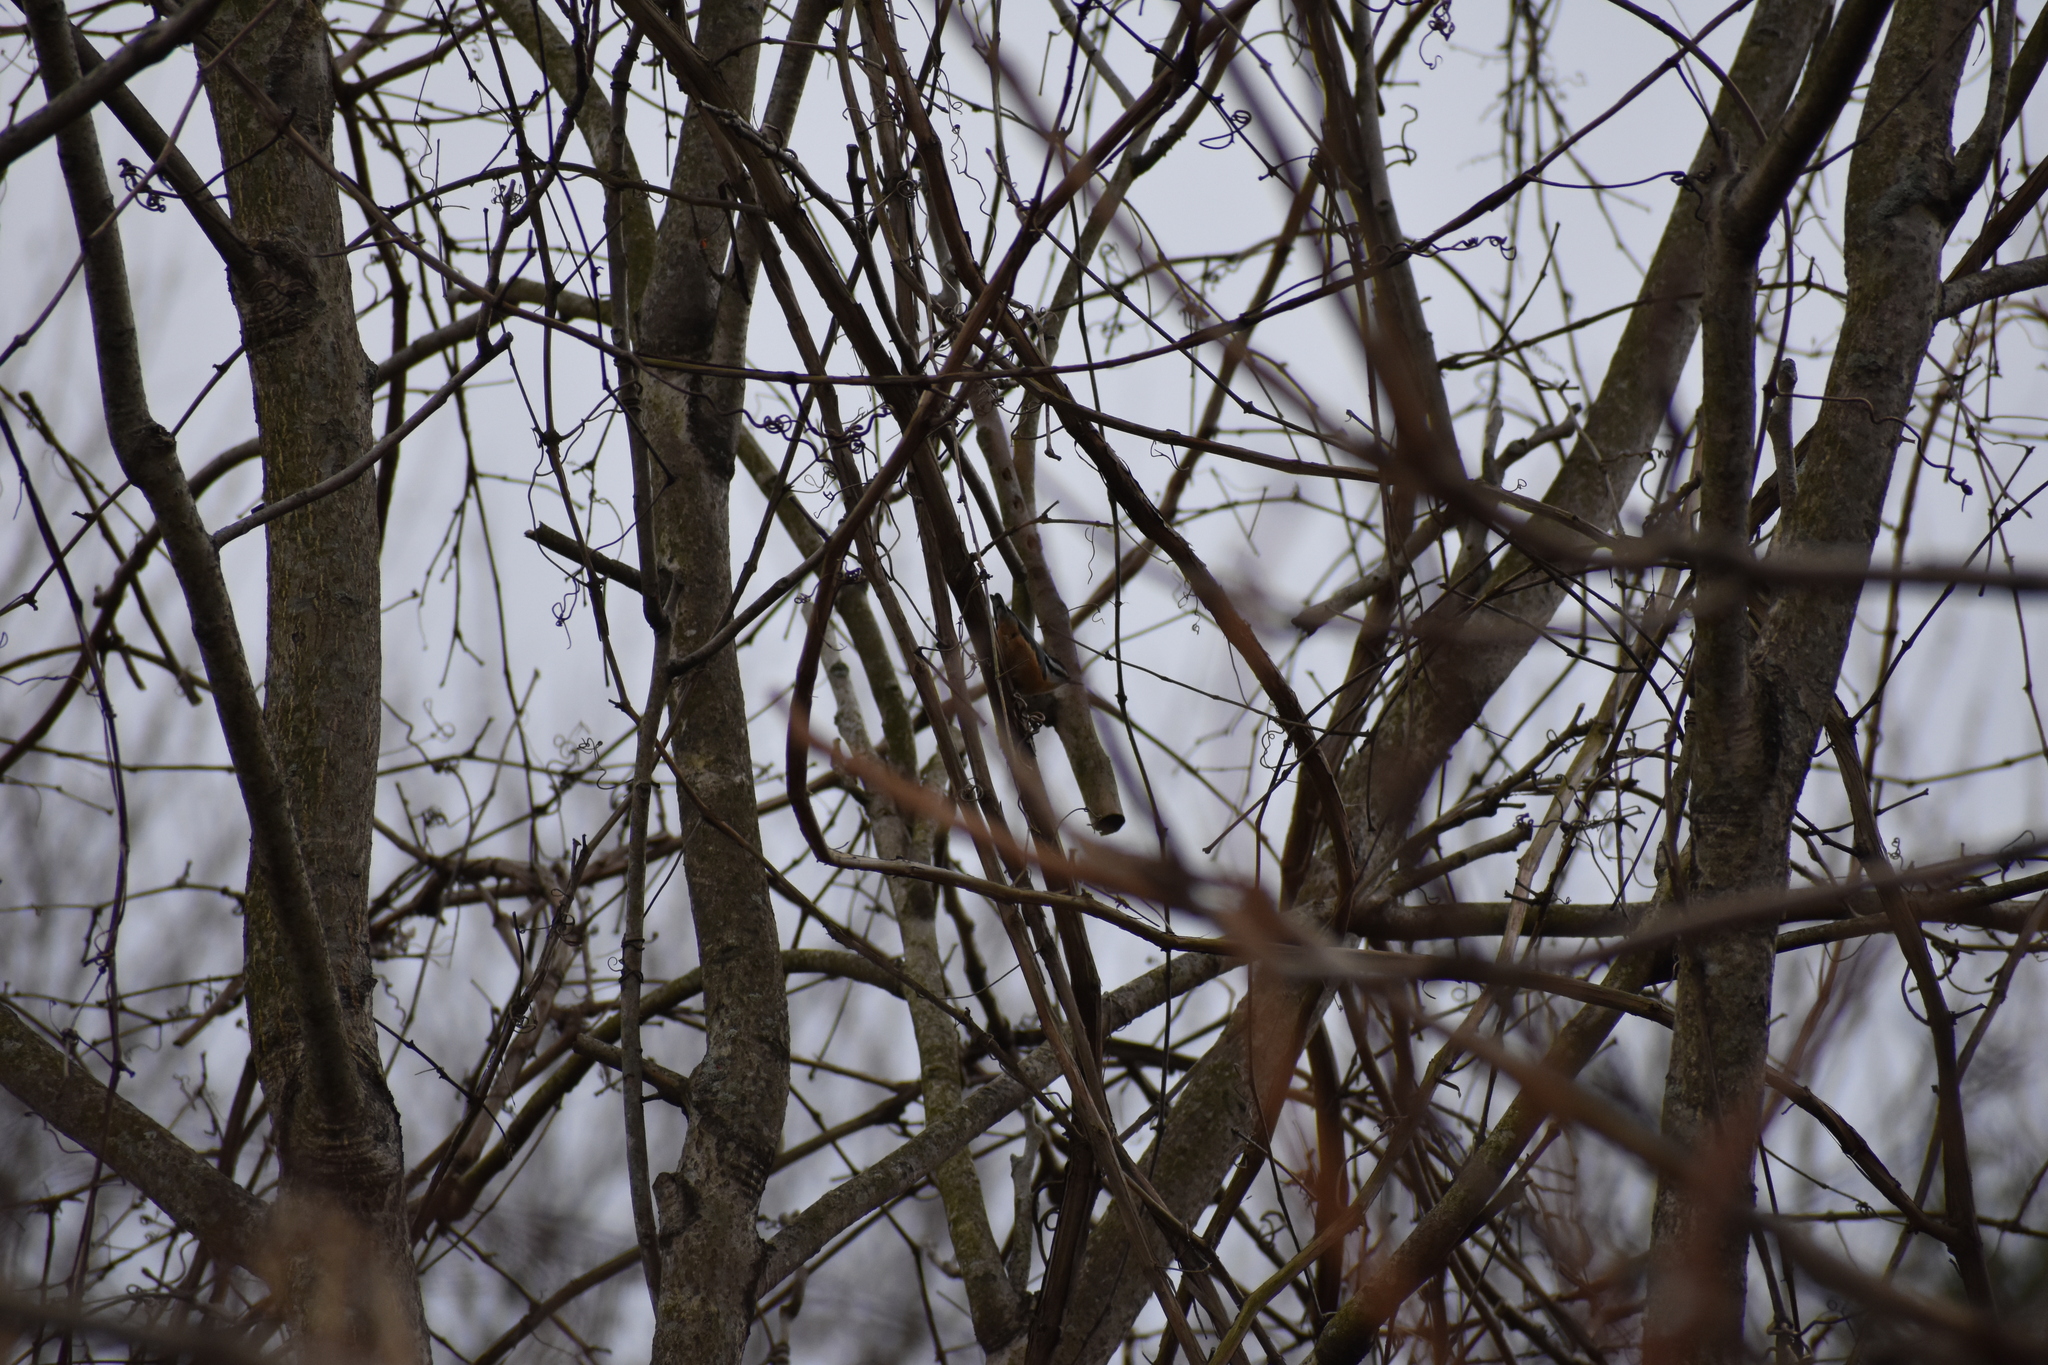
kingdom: Animalia
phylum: Chordata
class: Aves
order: Passeriformes
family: Sittidae
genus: Sitta
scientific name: Sitta canadensis
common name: Red-breasted nuthatch
